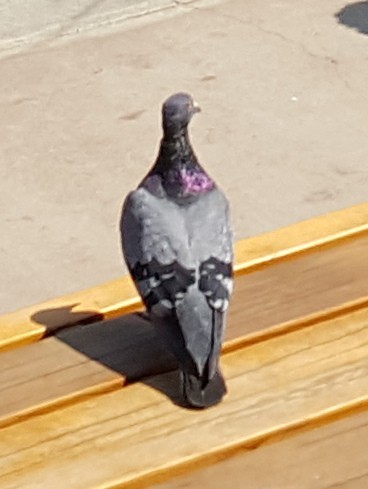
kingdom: Animalia
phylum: Chordata
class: Aves
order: Columbiformes
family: Columbidae
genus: Columba
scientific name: Columba livia
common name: Rock pigeon
